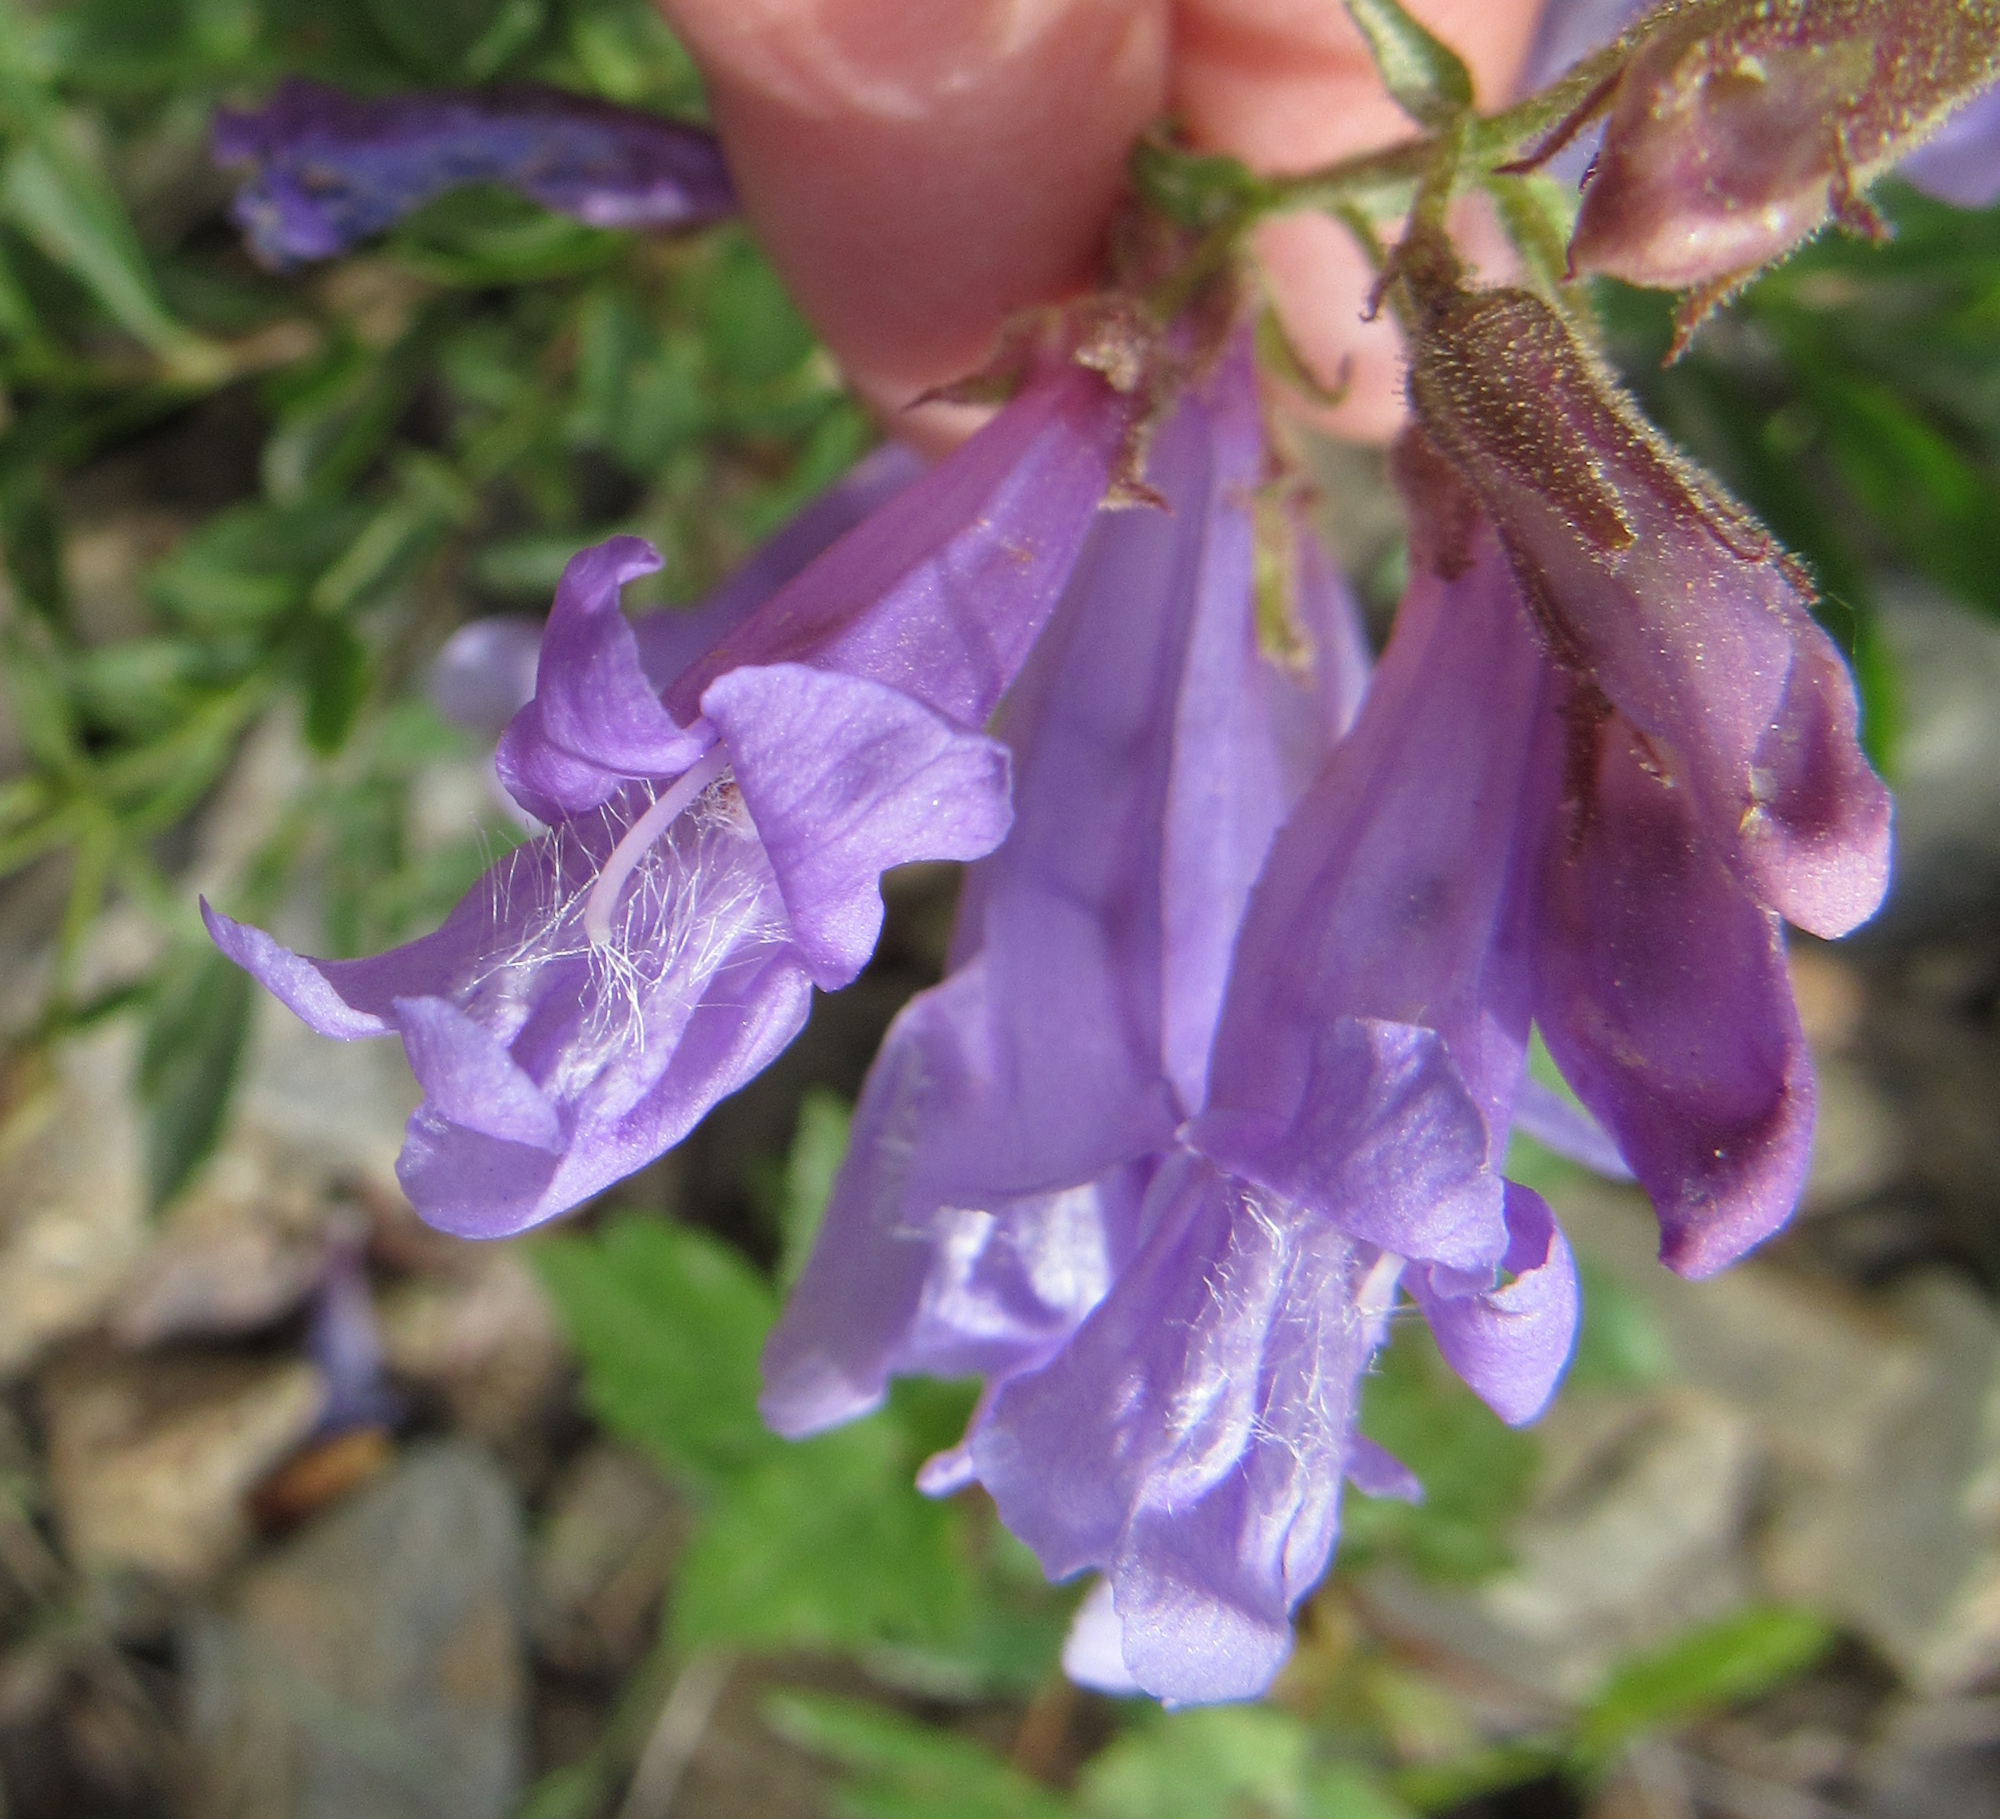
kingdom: Plantae
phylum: Tracheophyta
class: Magnoliopsida
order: Lamiales
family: Plantaginaceae
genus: Penstemon
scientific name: Penstemon fruticosus
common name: Bush penstemon
